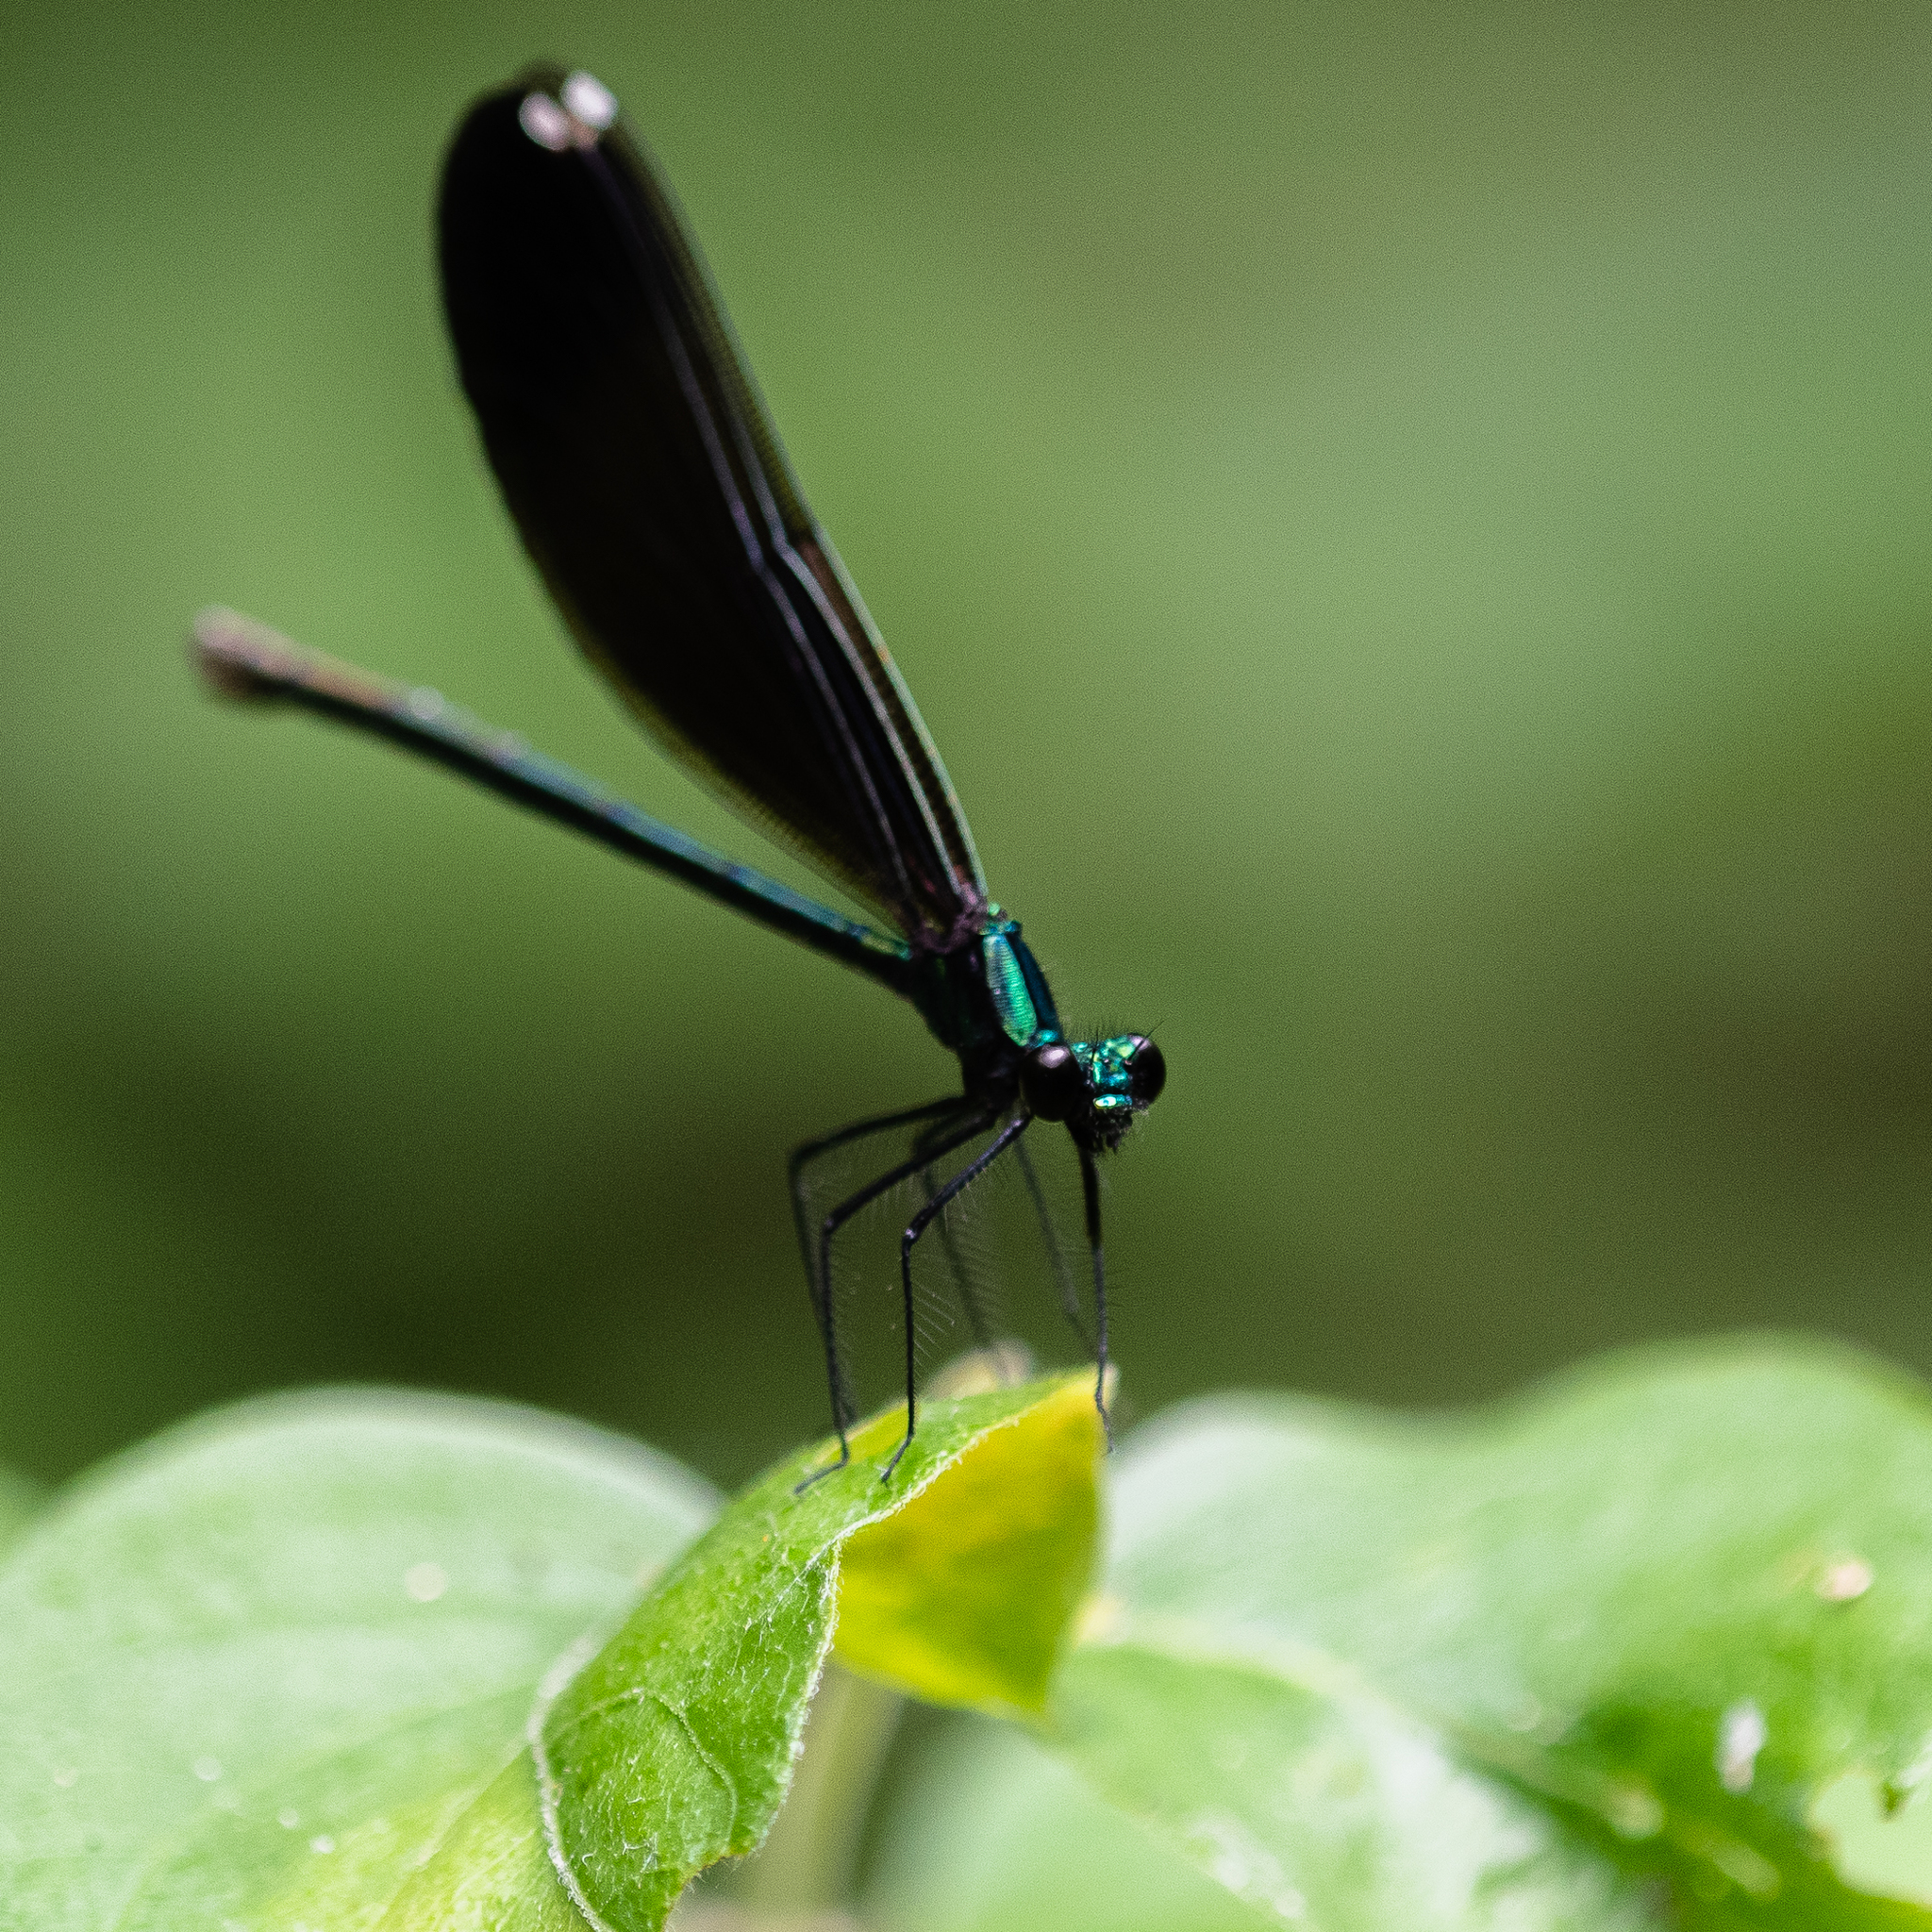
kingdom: Animalia
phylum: Arthropoda
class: Insecta
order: Odonata
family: Calopterygidae
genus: Calopteryx
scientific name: Calopteryx maculata
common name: Ebony jewelwing
